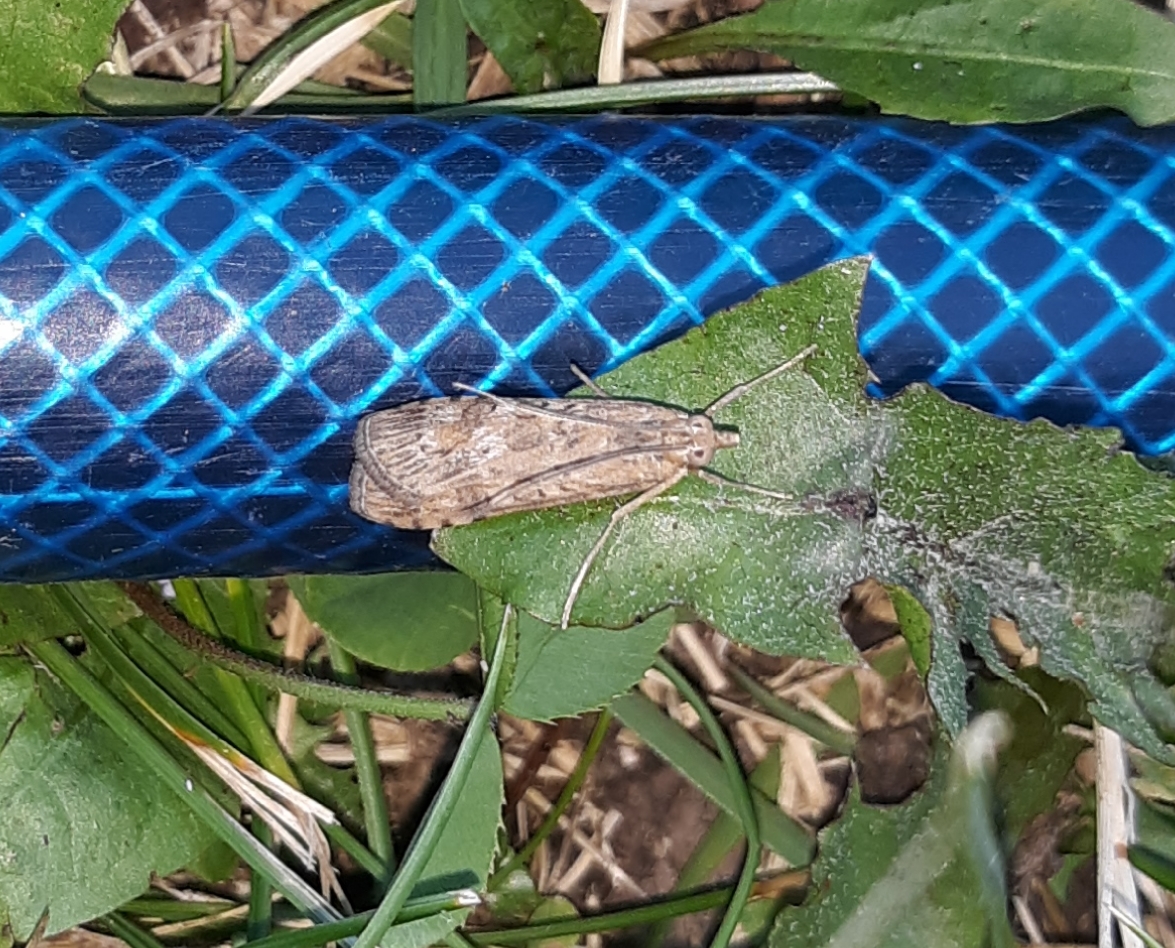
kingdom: Animalia
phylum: Arthropoda
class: Insecta
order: Lepidoptera
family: Crambidae
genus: Nomophila
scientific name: Nomophila nearctica
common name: American rush veneer
